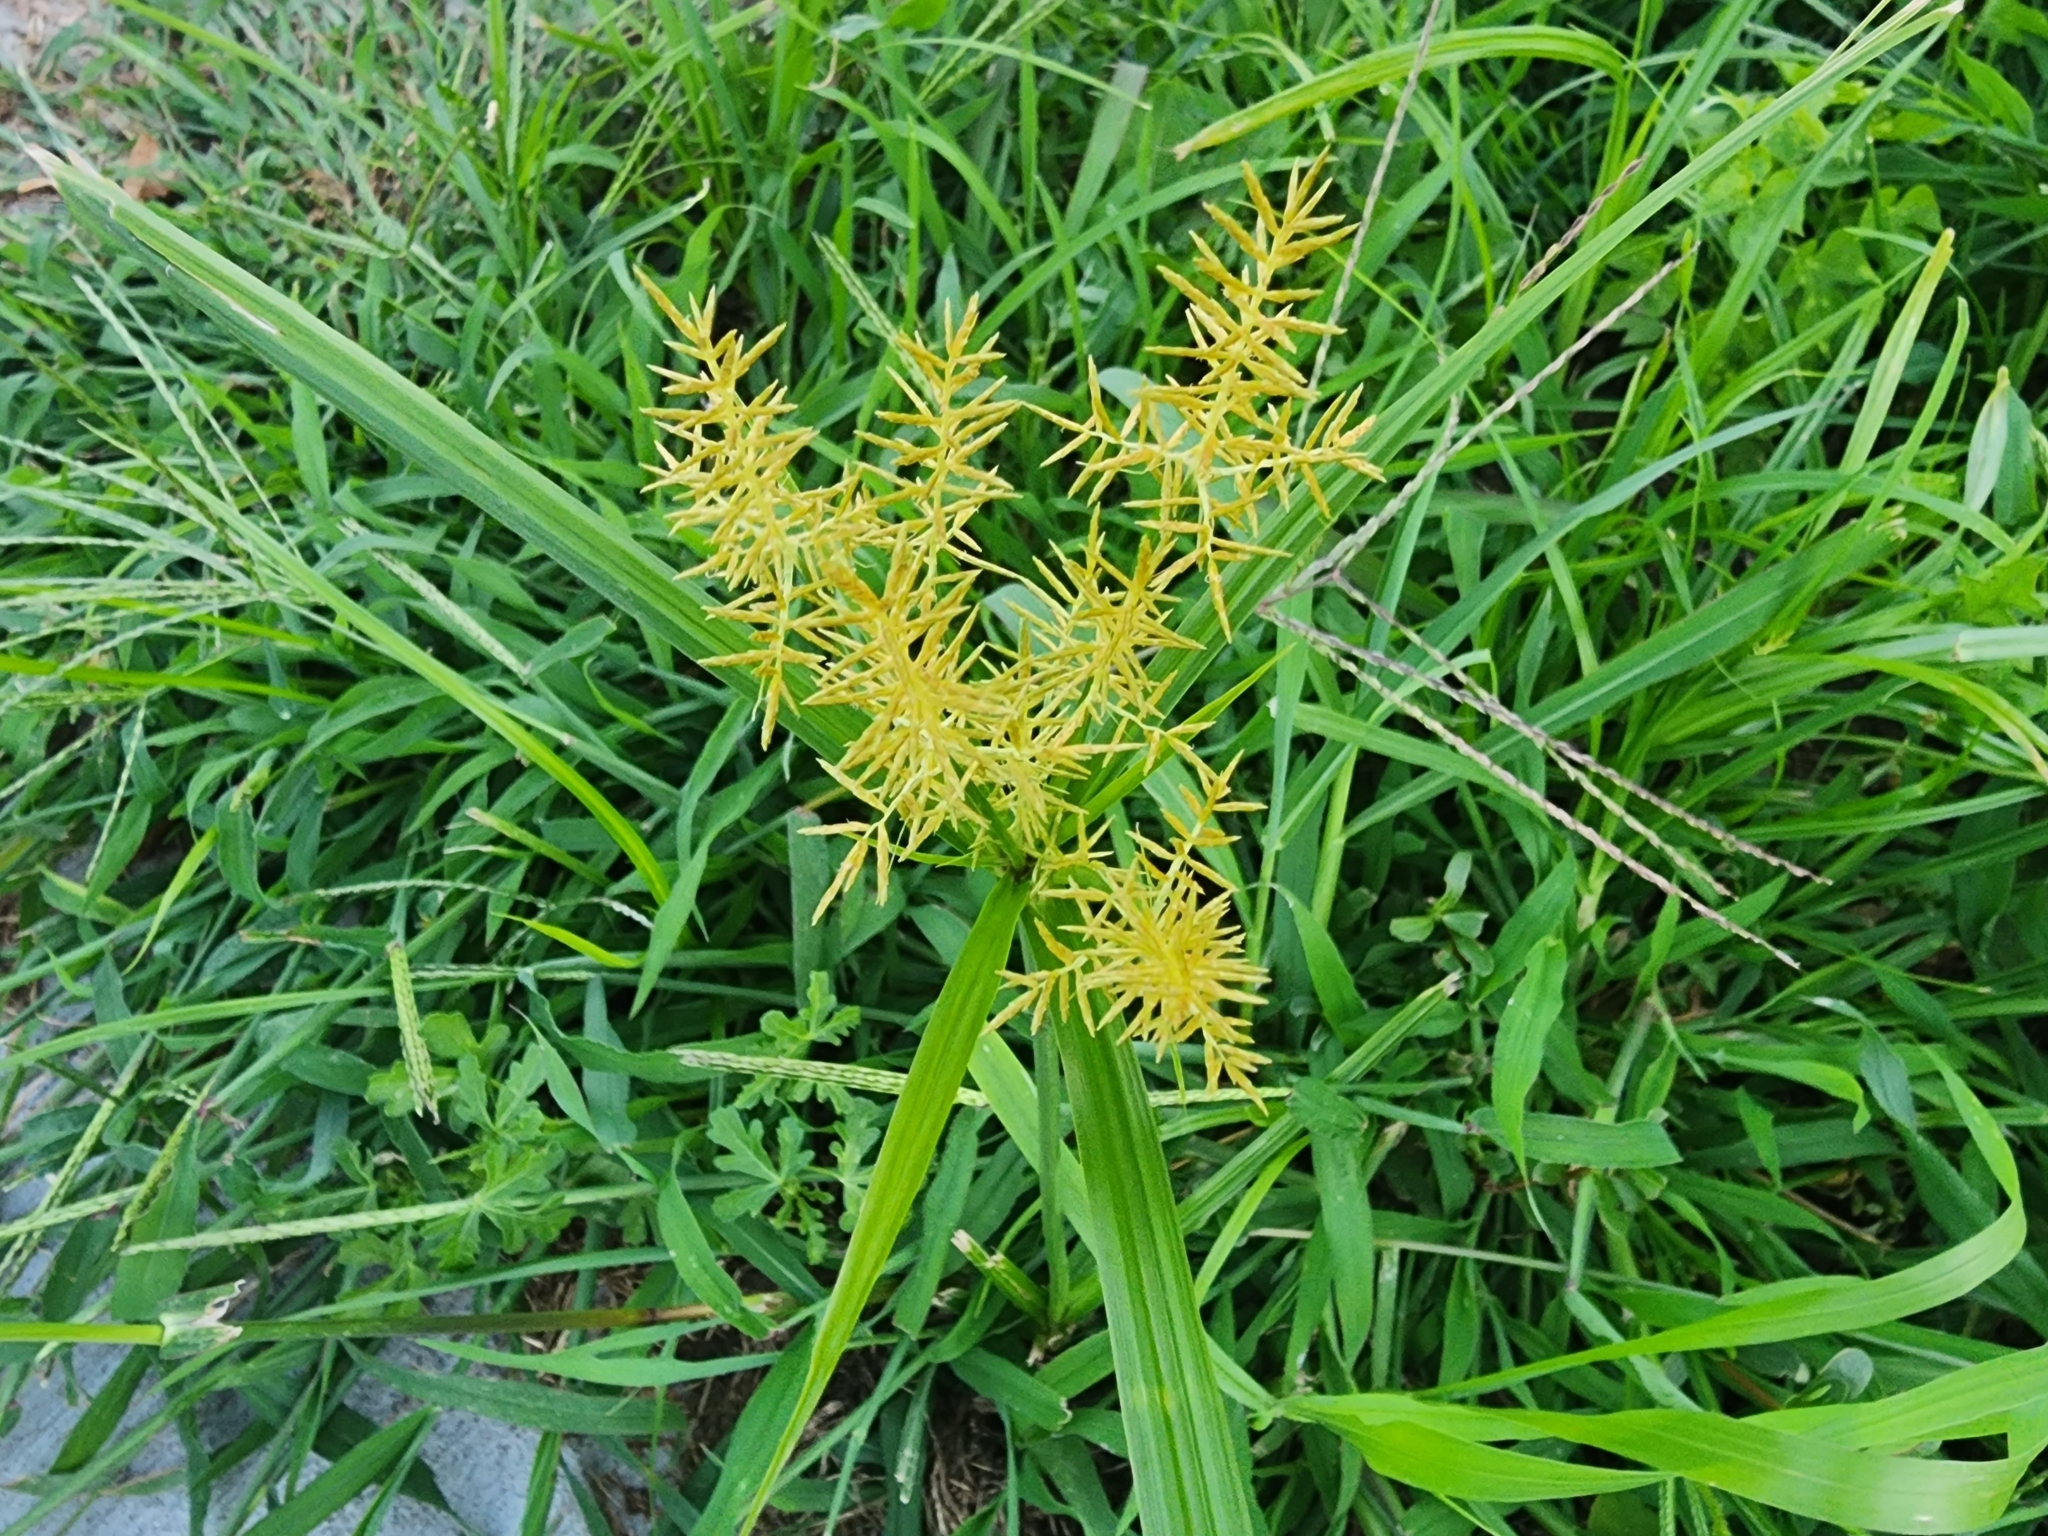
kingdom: Plantae
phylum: Tracheophyta
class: Liliopsida
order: Poales
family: Cyperaceae
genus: Cyperus
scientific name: Cyperus esculentus
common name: Yellow nutsedge
